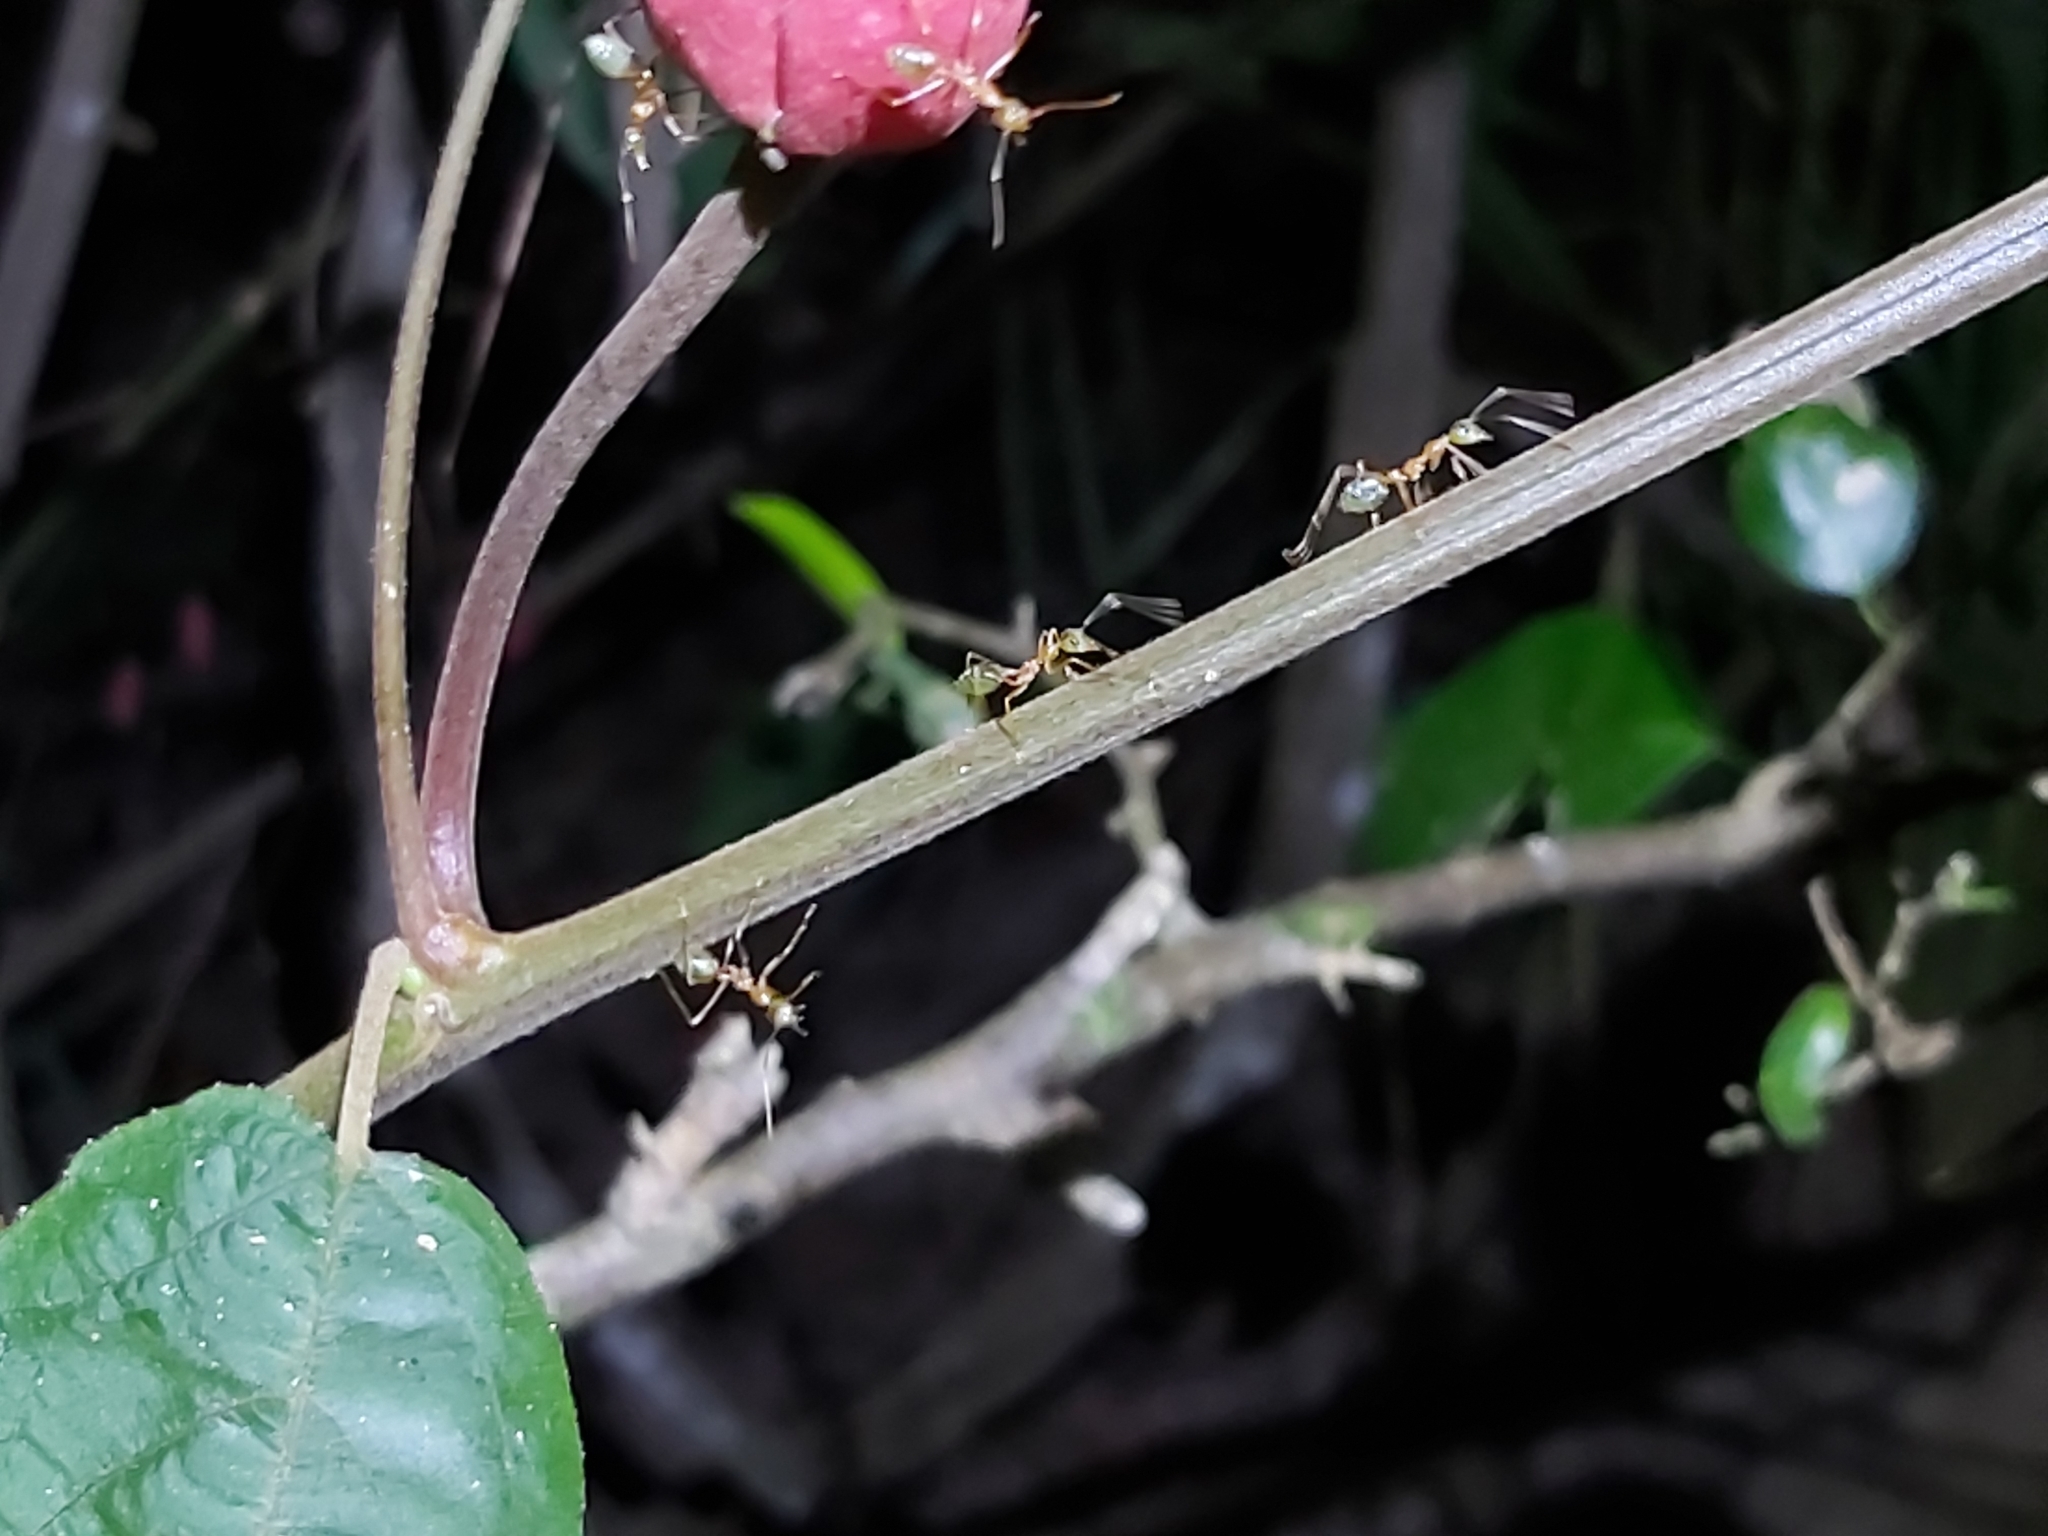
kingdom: Animalia
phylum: Arthropoda
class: Insecta
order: Hymenoptera
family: Formicidae
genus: Oecophylla
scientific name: Oecophylla smaragdina
